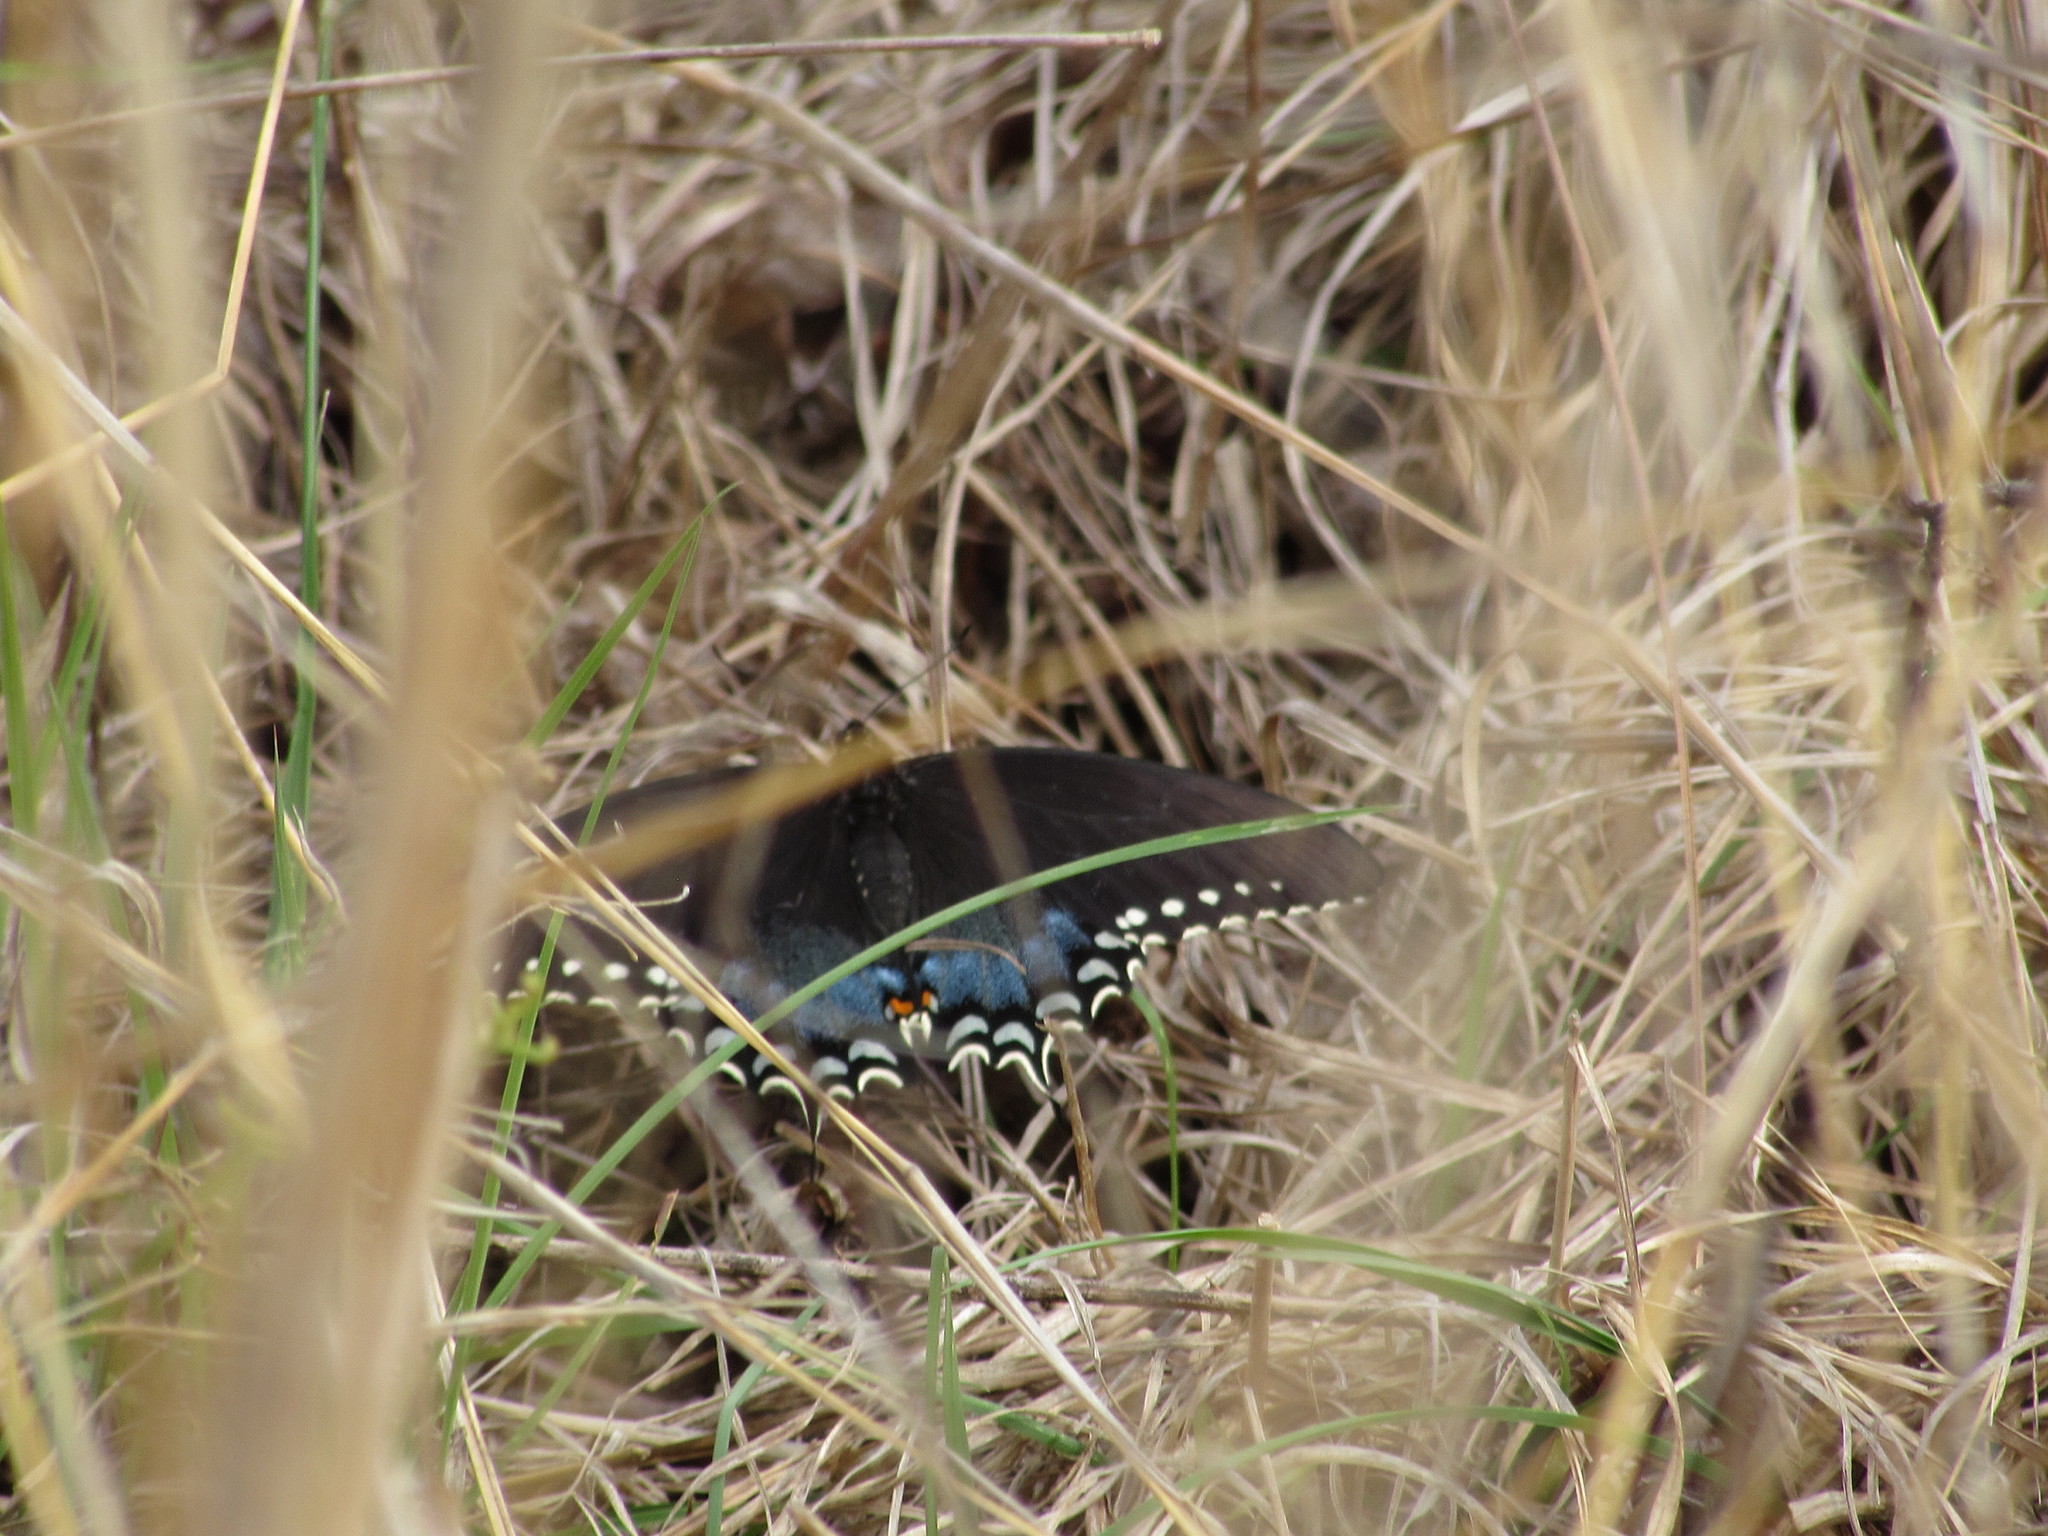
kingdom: Animalia
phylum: Arthropoda
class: Insecta
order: Lepidoptera
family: Papilionidae
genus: Papilio
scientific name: Papilio troilus
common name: Spicebush swallowtail
